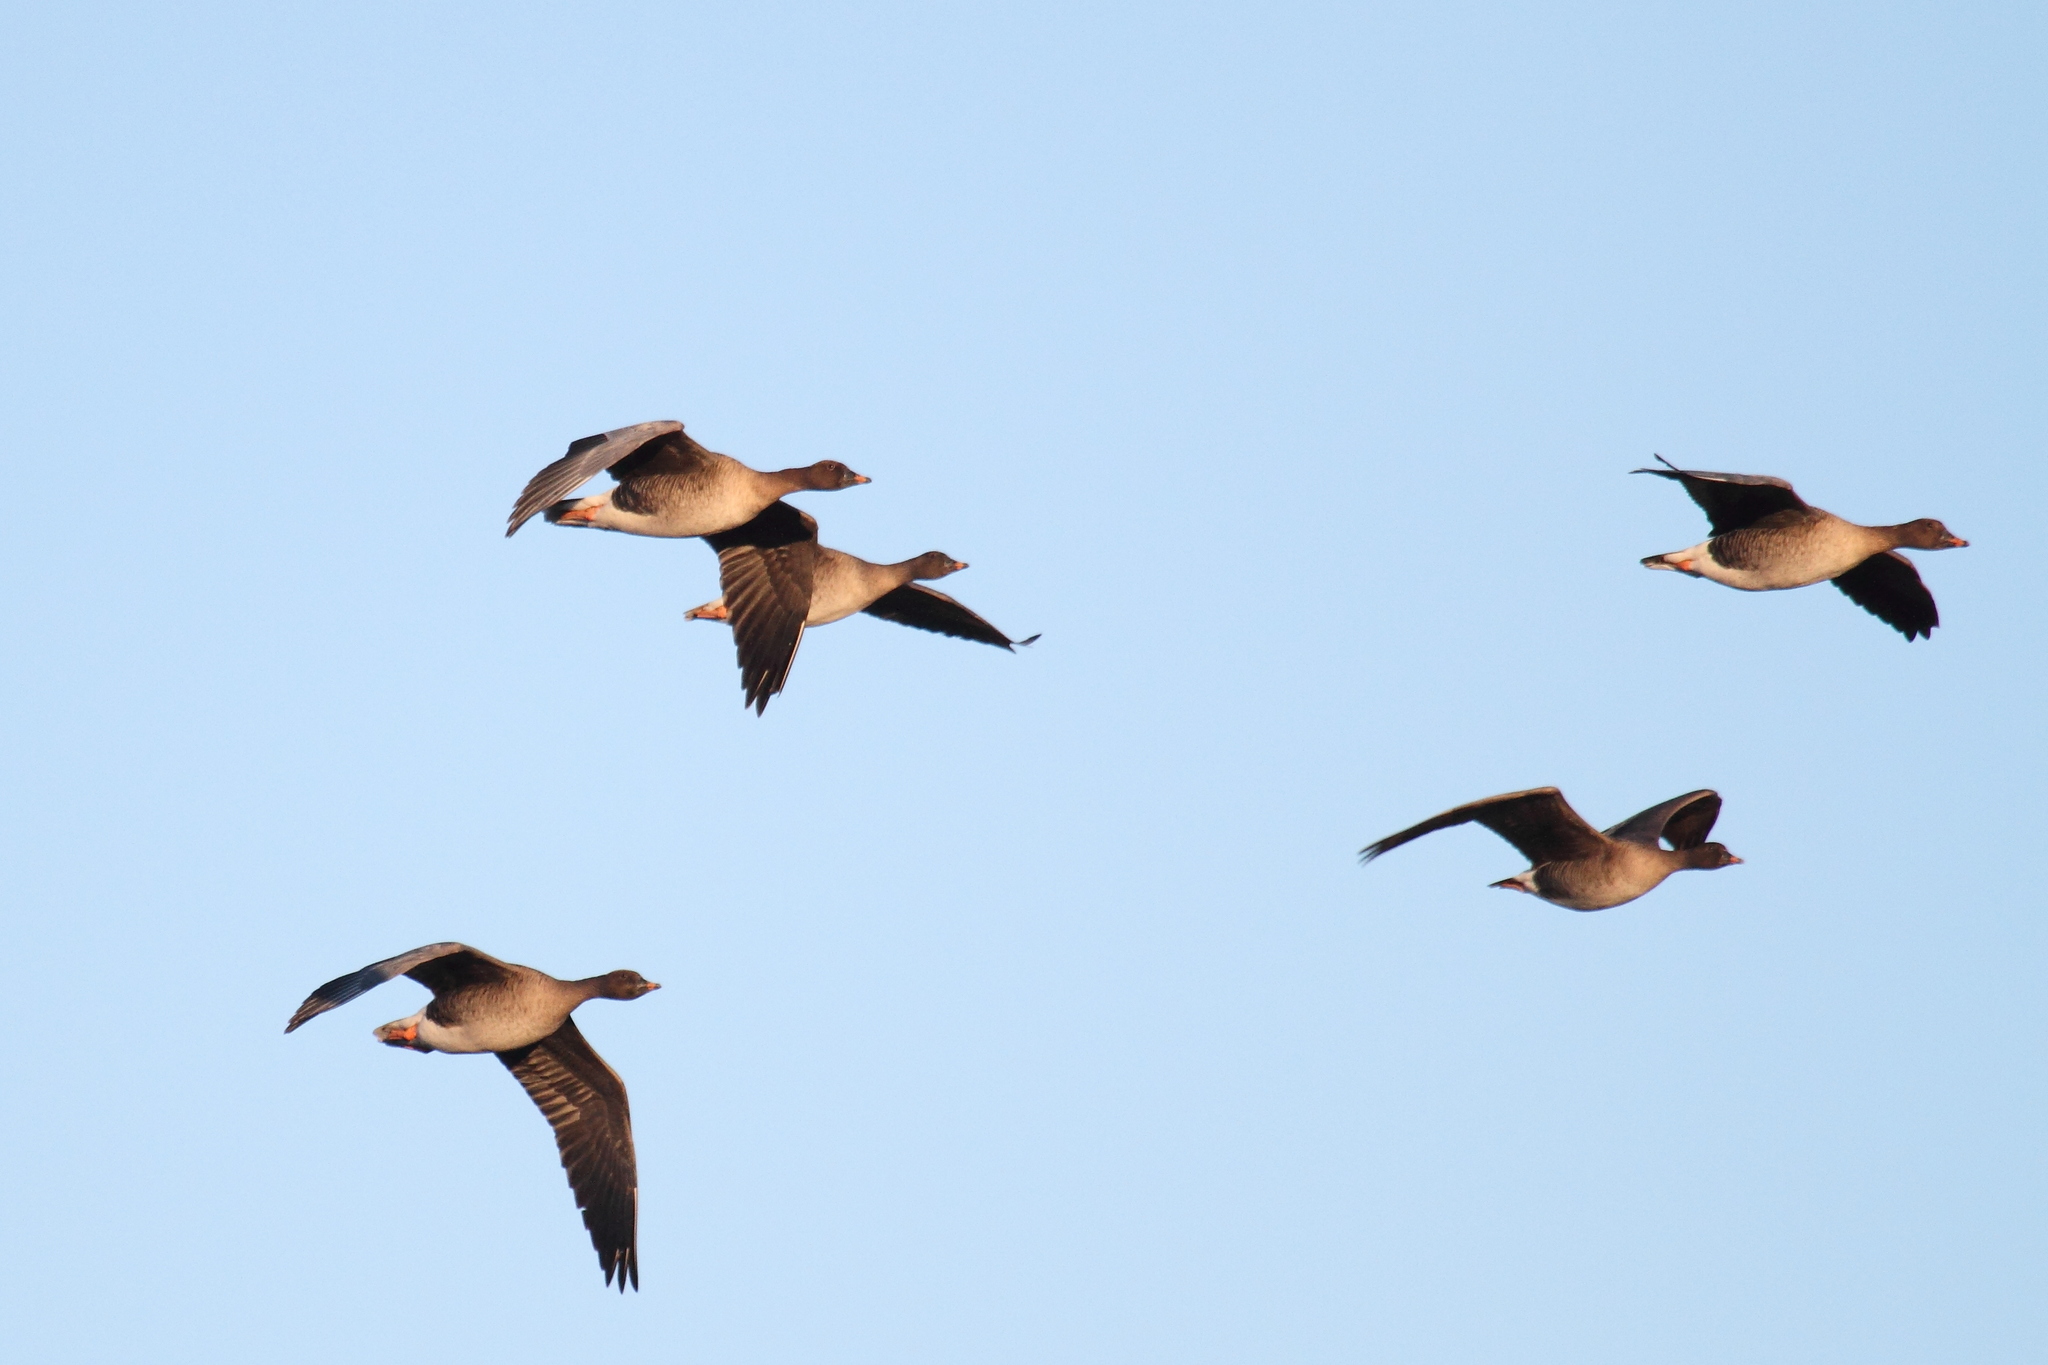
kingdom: Animalia
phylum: Chordata
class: Aves
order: Anseriformes
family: Anatidae
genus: Anser
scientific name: Anser serrirostris
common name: Tundra bean goose
